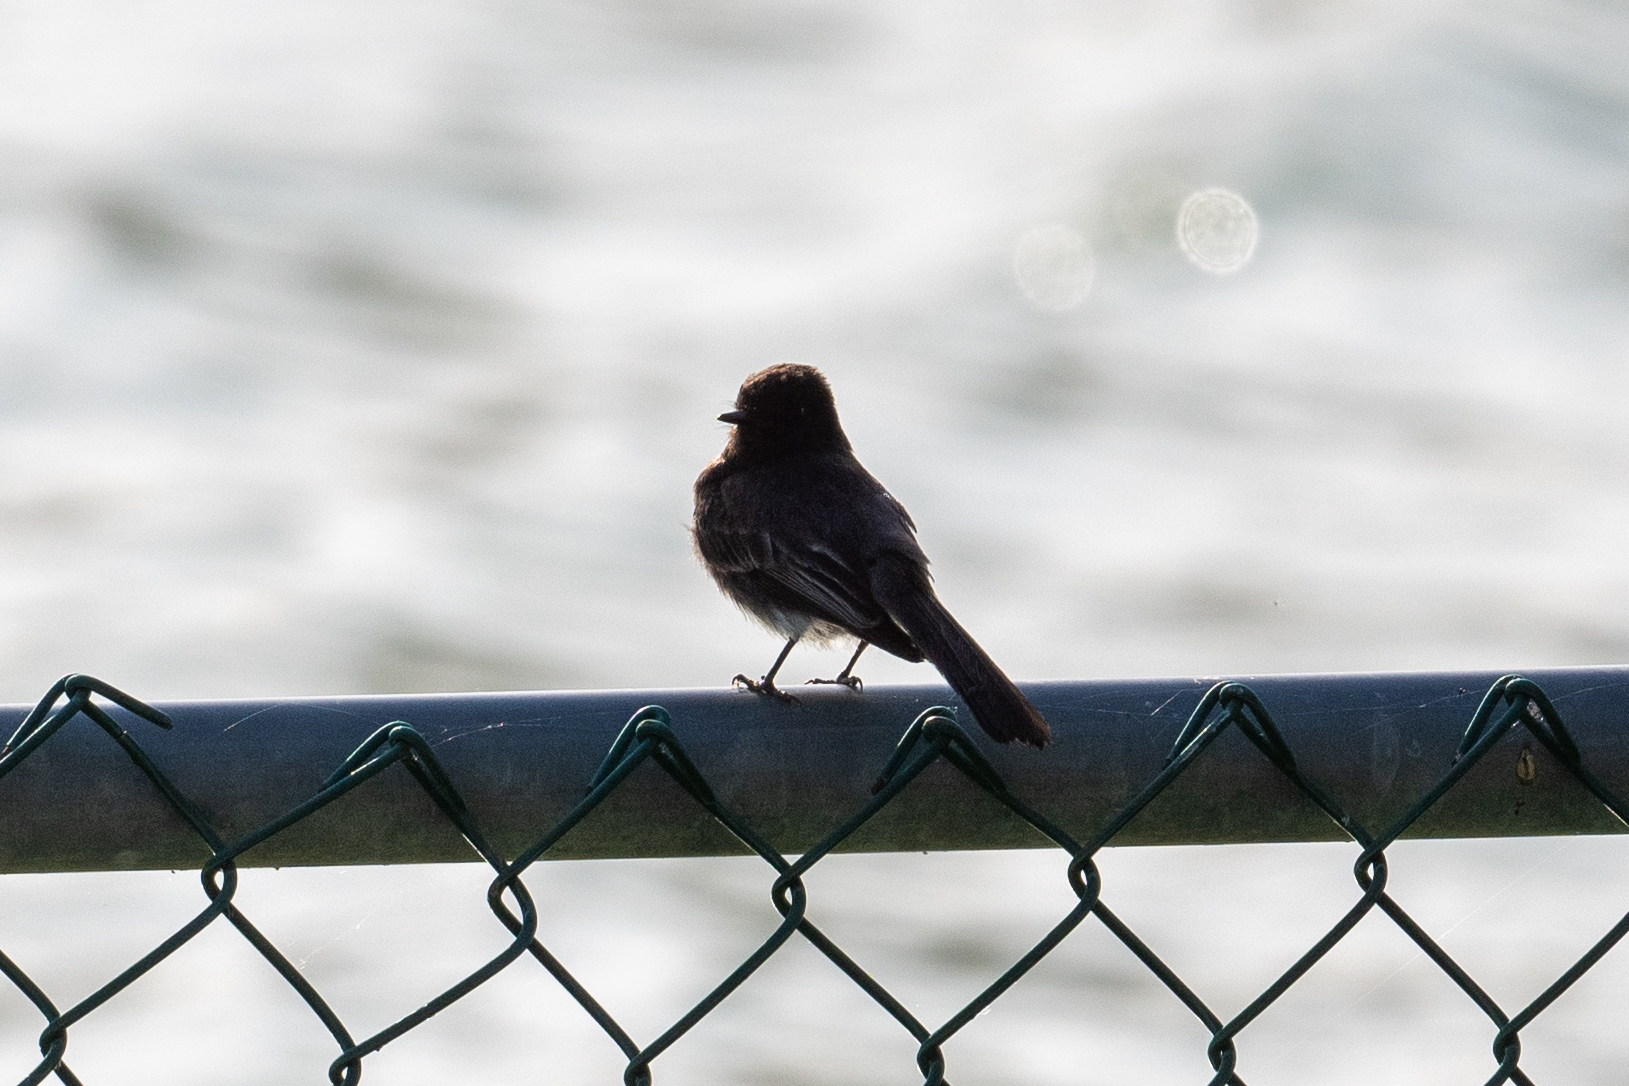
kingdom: Animalia
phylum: Chordata
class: Aves
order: Passeriformes
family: Tyrannidae
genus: Sayornis
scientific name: Sayornis nigricans
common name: Black phoebe
